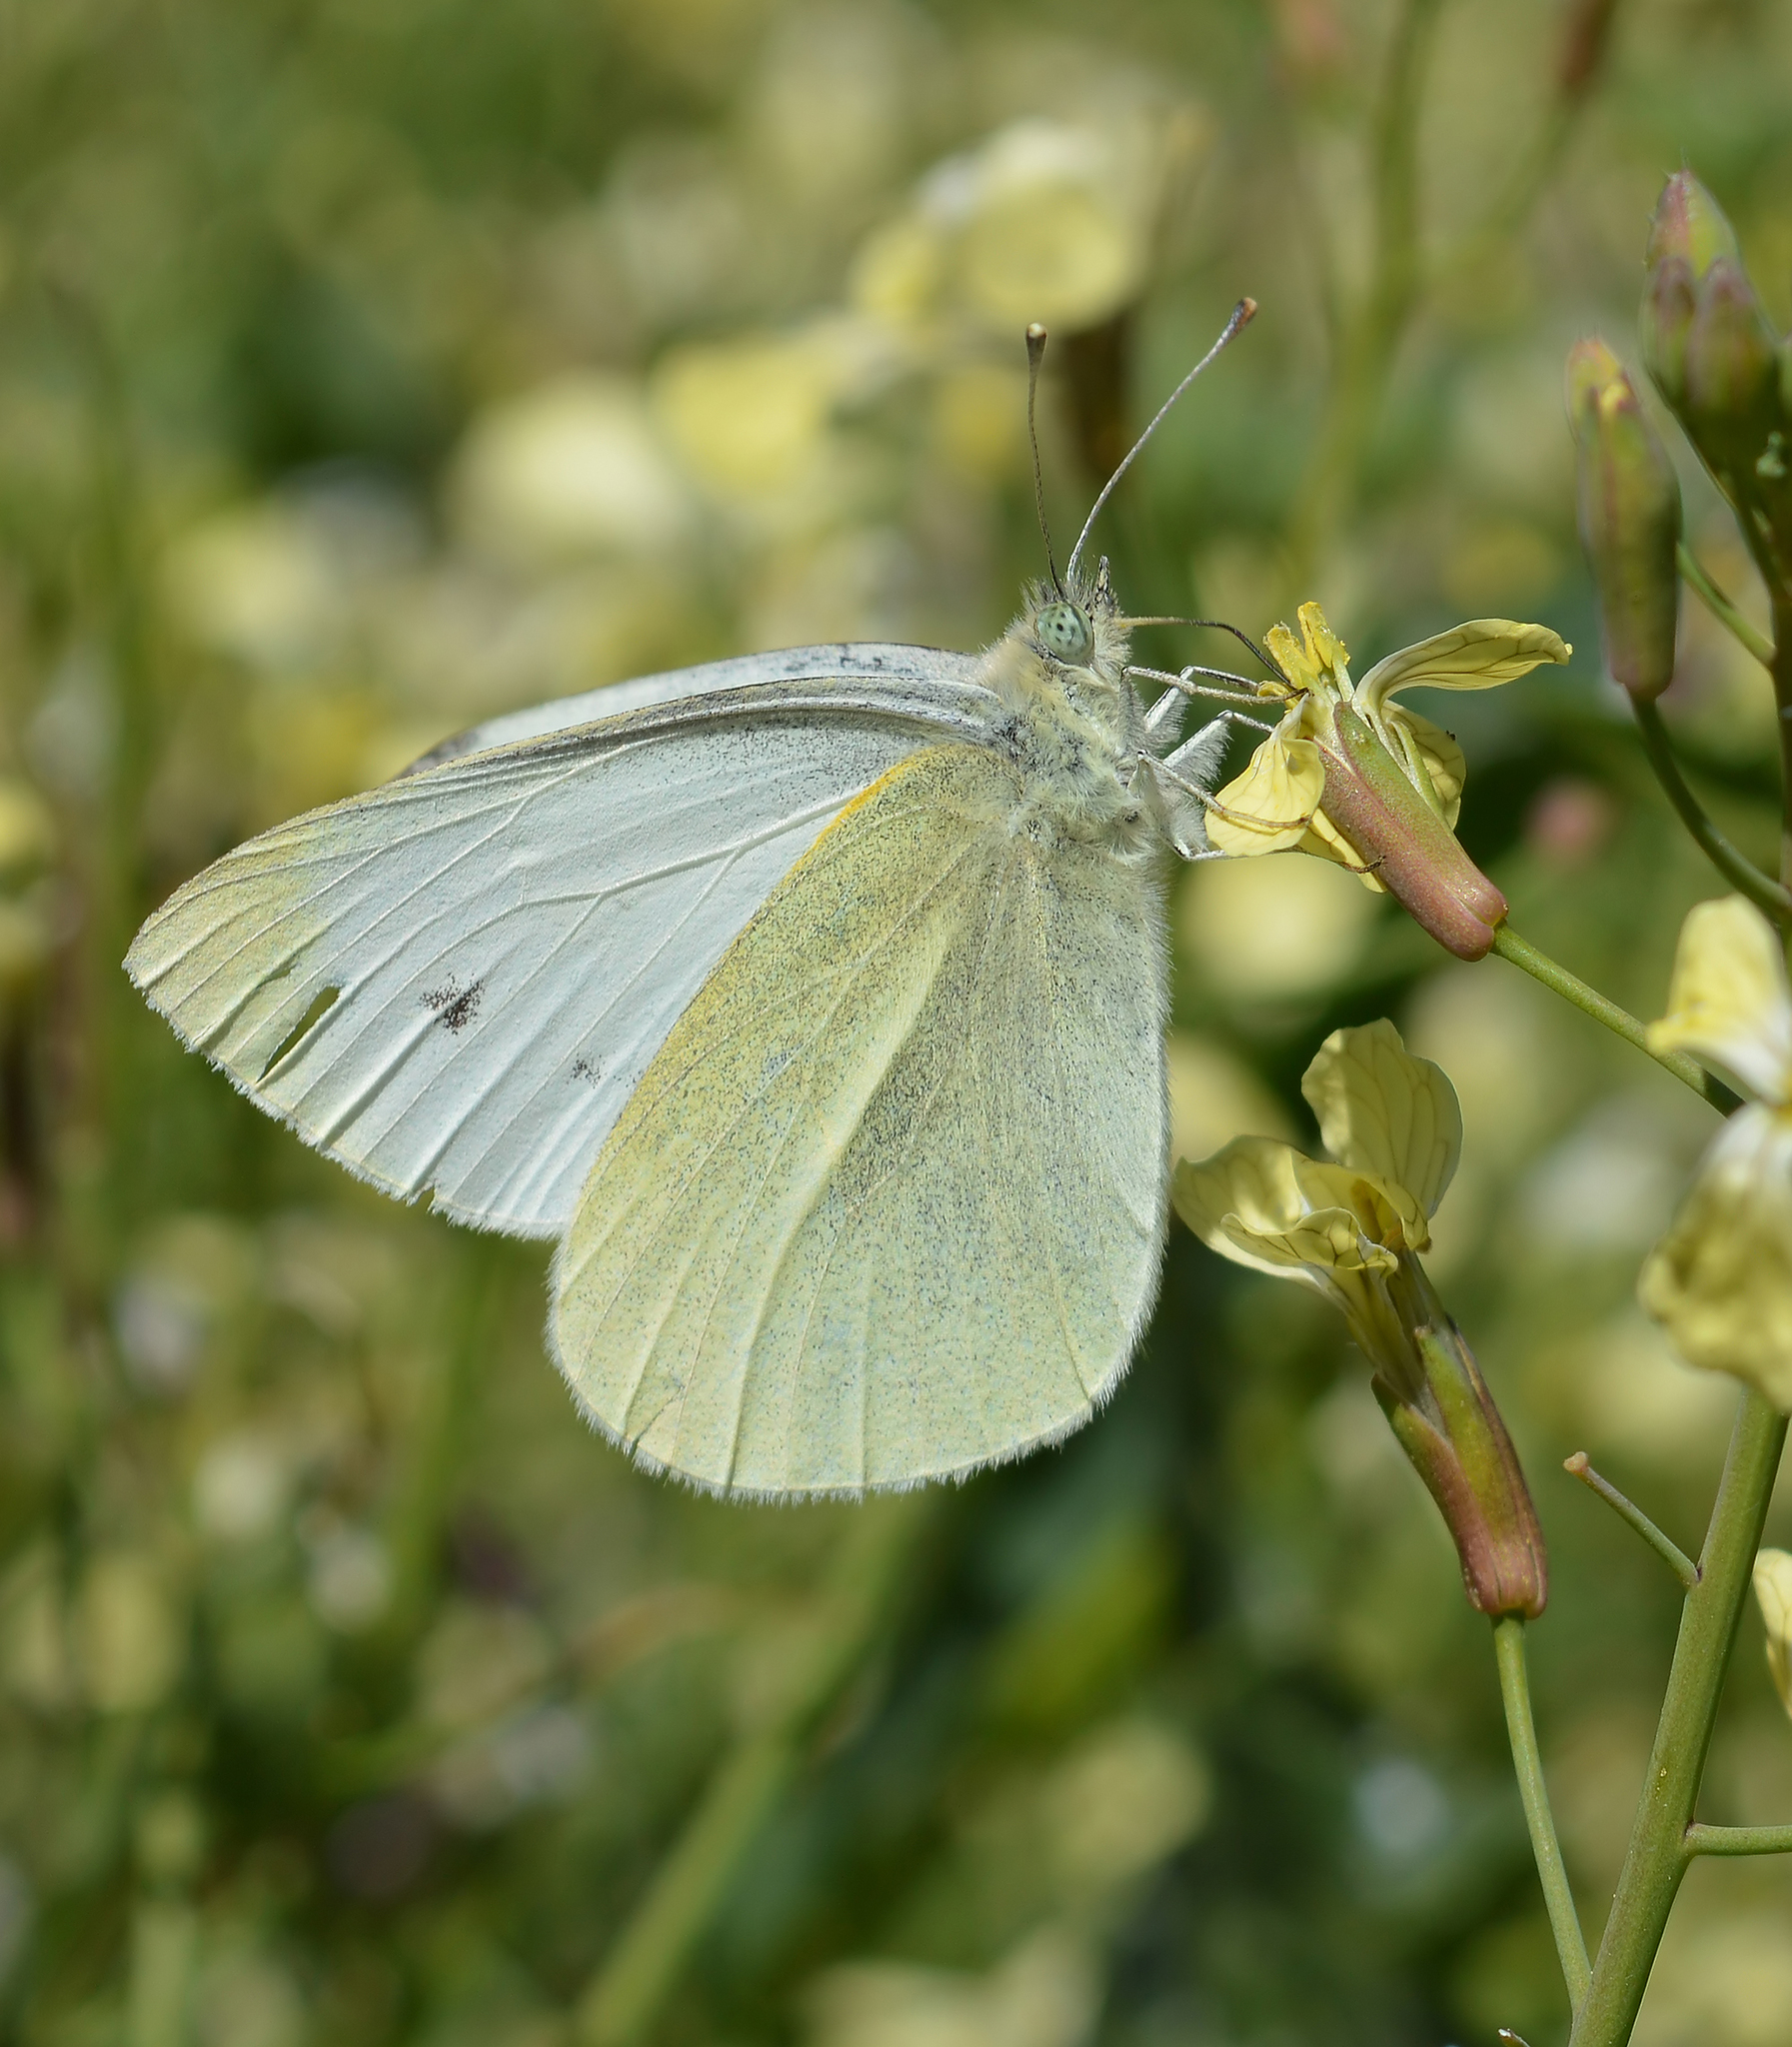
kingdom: Animalia
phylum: Arthropoda
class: Insecta
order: Lepidoptera
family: Pieridae
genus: Pieris
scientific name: Pieris rapae
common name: Small white
